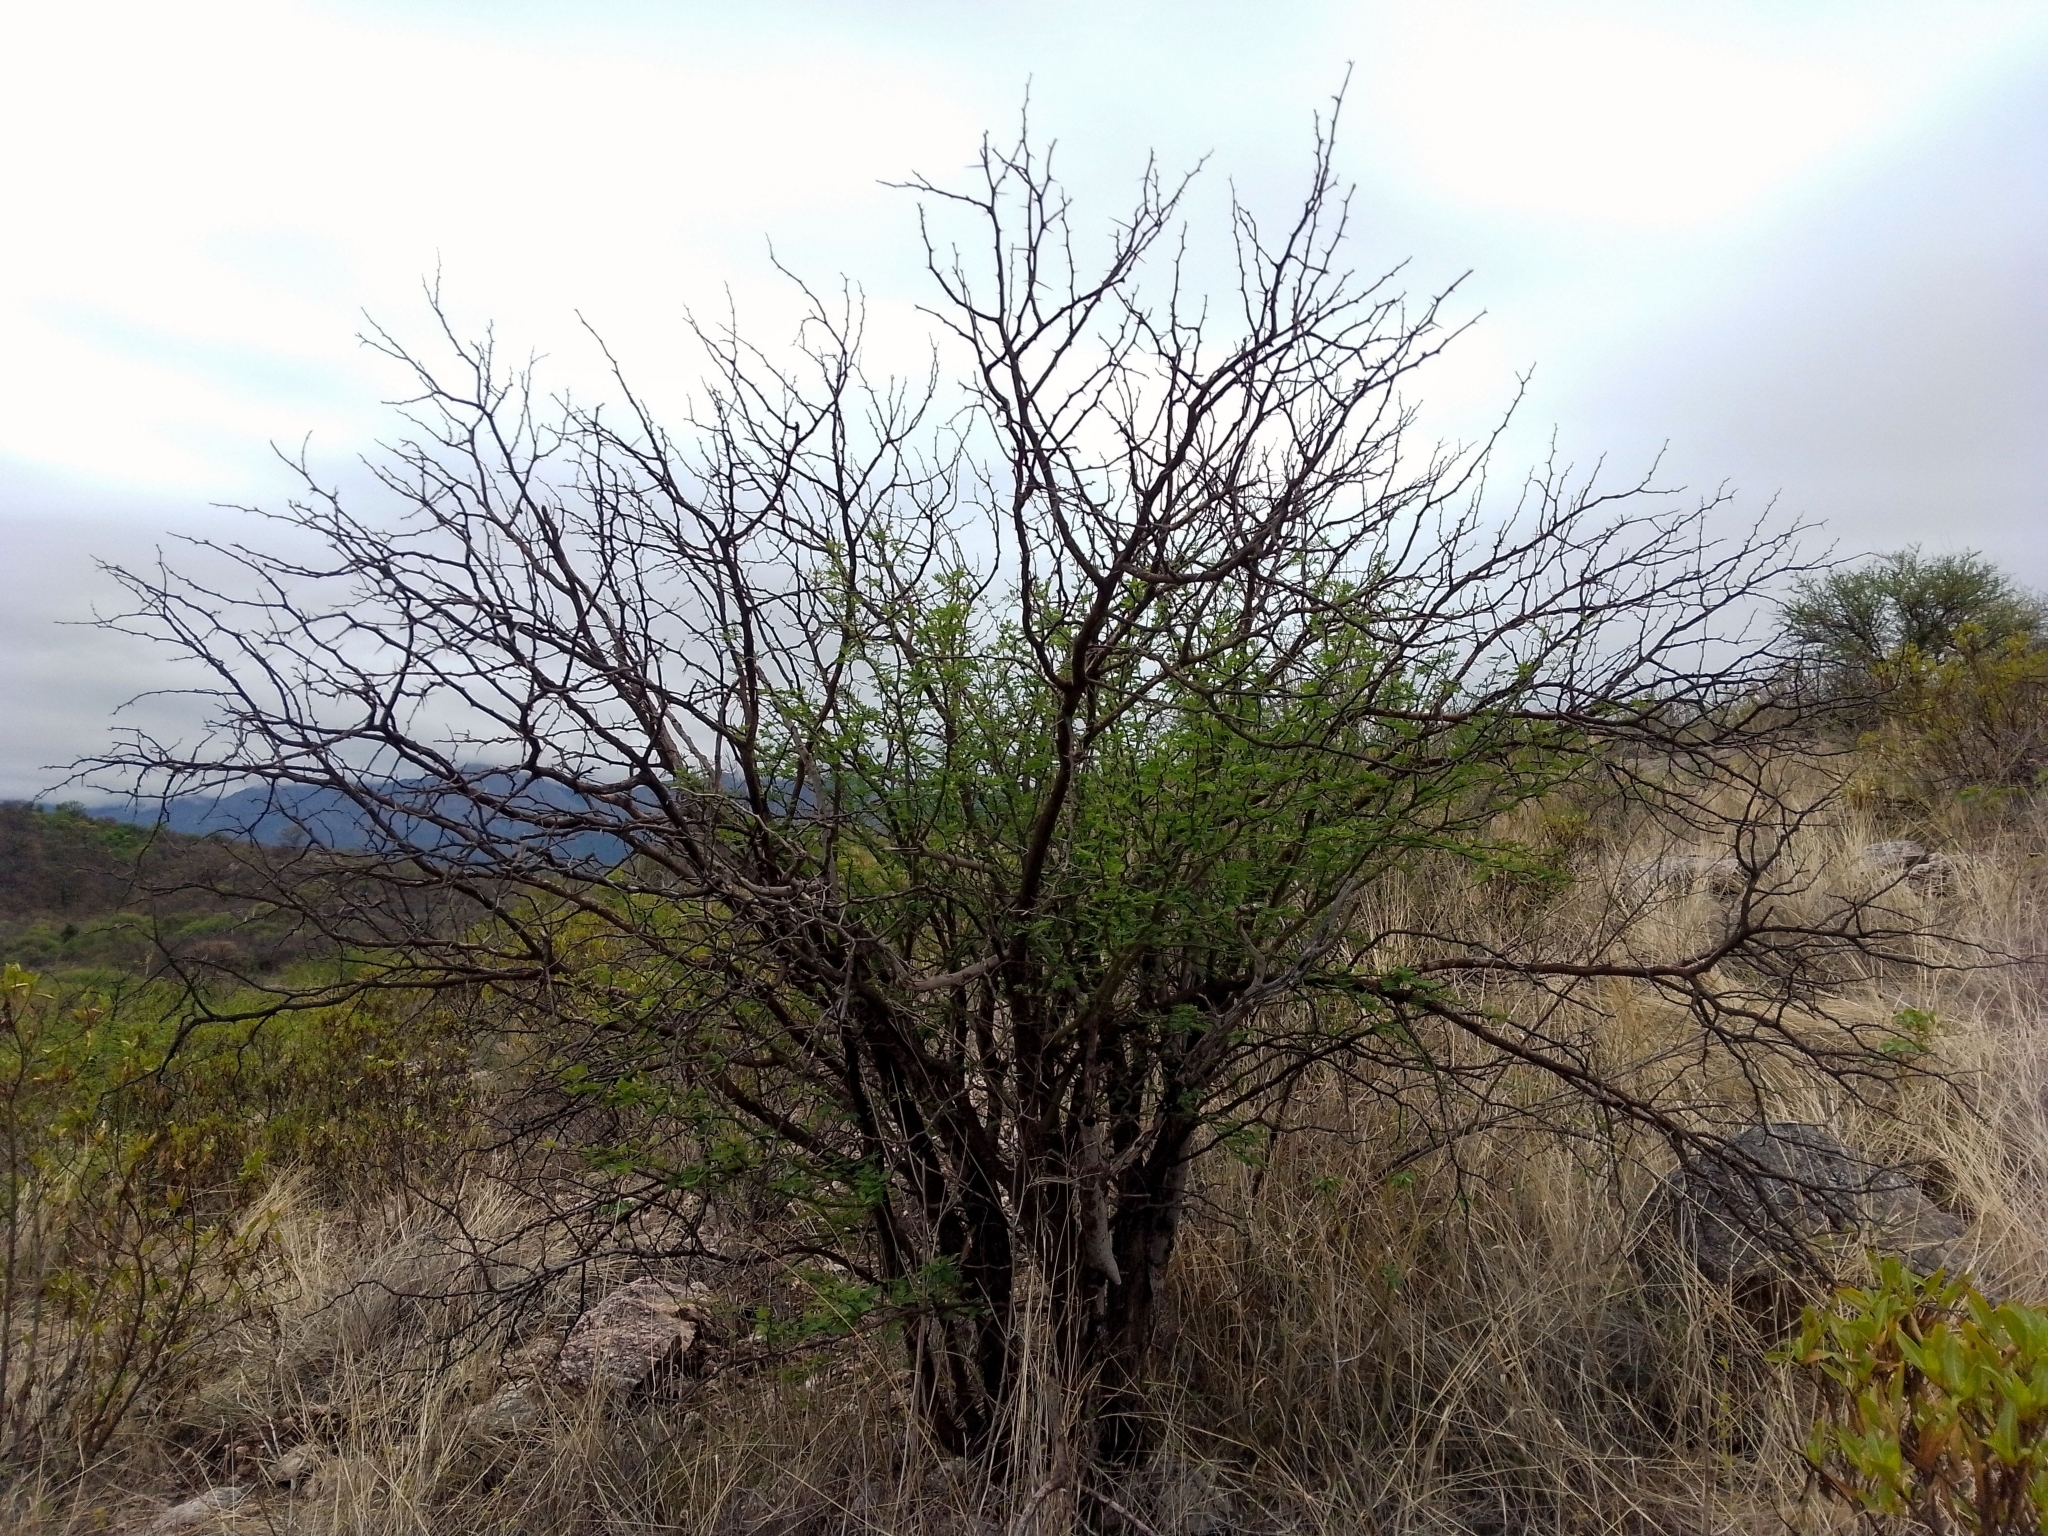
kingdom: Plantae
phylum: Tracheophyta
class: Magnoliopsida
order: Fabales
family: Fabaceae
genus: Vachellia
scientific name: Vachellia caven
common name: Roman cassie
